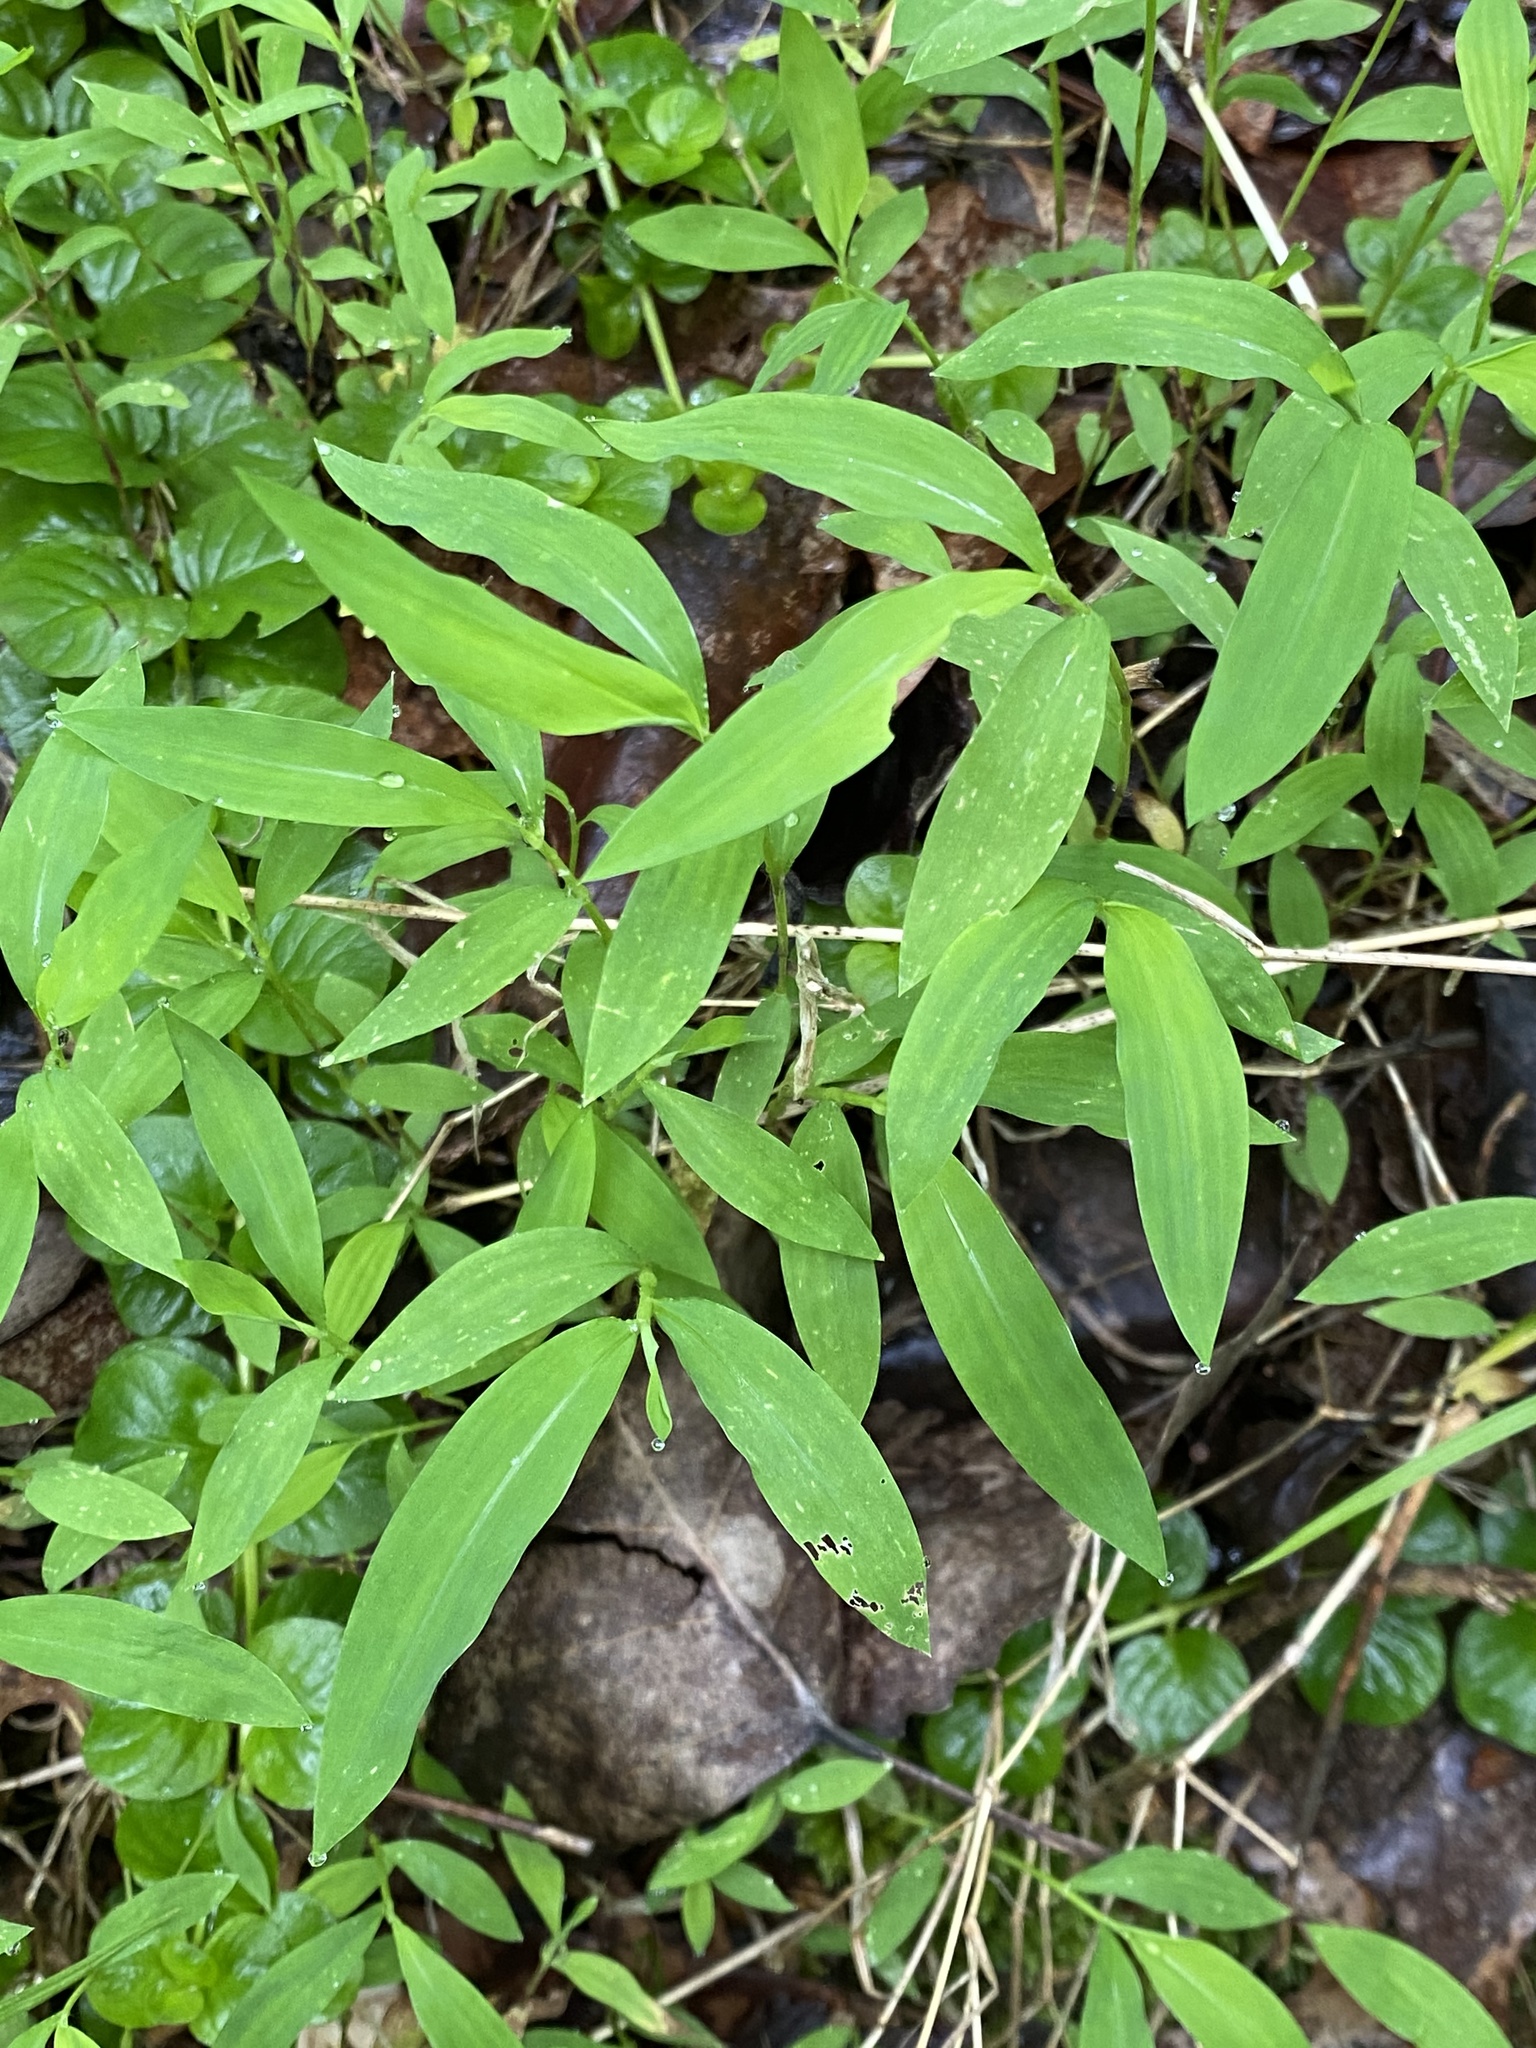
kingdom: Plantae
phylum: Tracheophyta
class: Liliopsida
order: Poales
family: Poaceae
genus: Microstegium
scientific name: Microstegium vimineum
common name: Japanese stiltgrass
